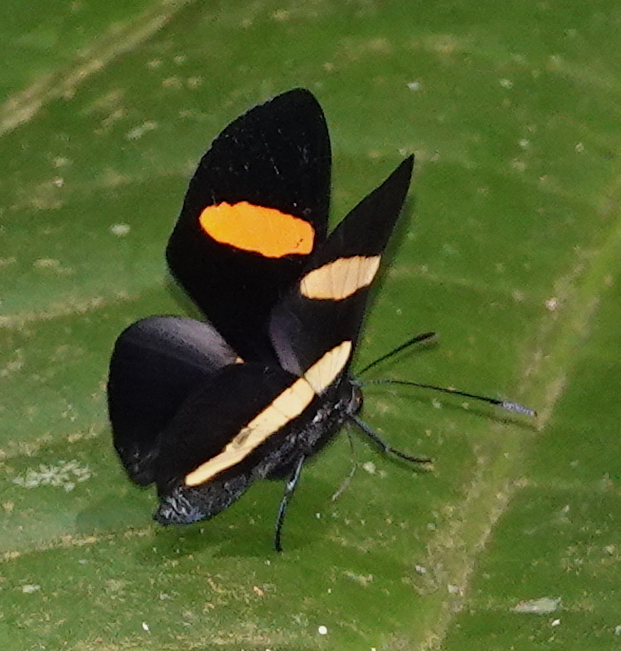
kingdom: Animalia
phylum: Arthropoda
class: Insecta
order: Lepidoptera
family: Lycaenidae
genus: Melanis
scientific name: Melanis agyrtus
